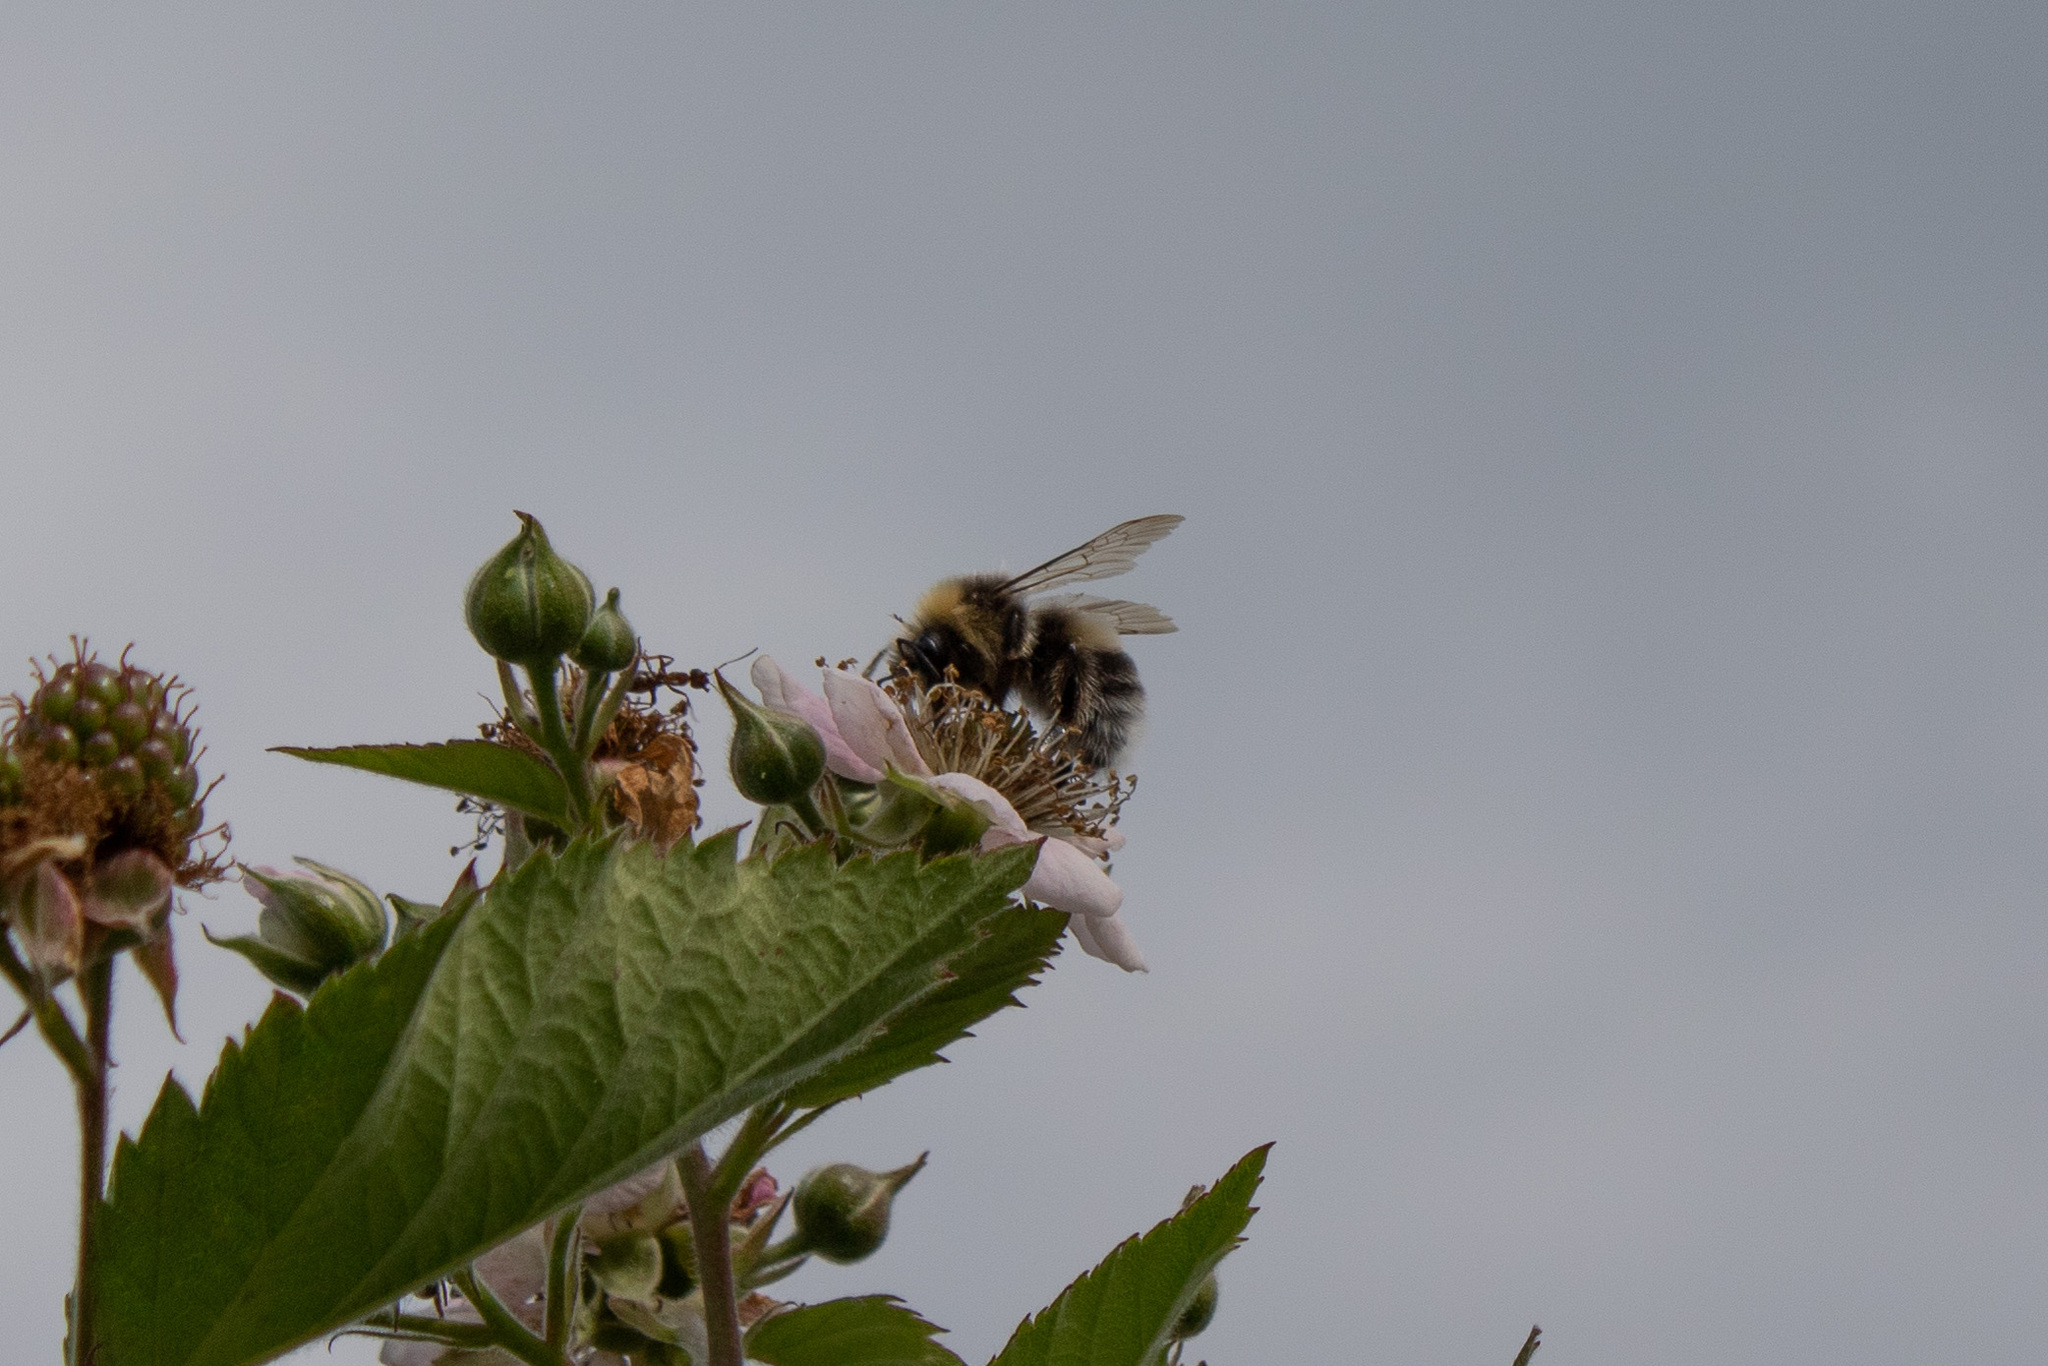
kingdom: Animalia
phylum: Arthropoda
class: Insecta
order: Hymenoptera
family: Apidae
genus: Bombus
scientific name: Bombus lucorum
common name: White-tailed bumblebee
